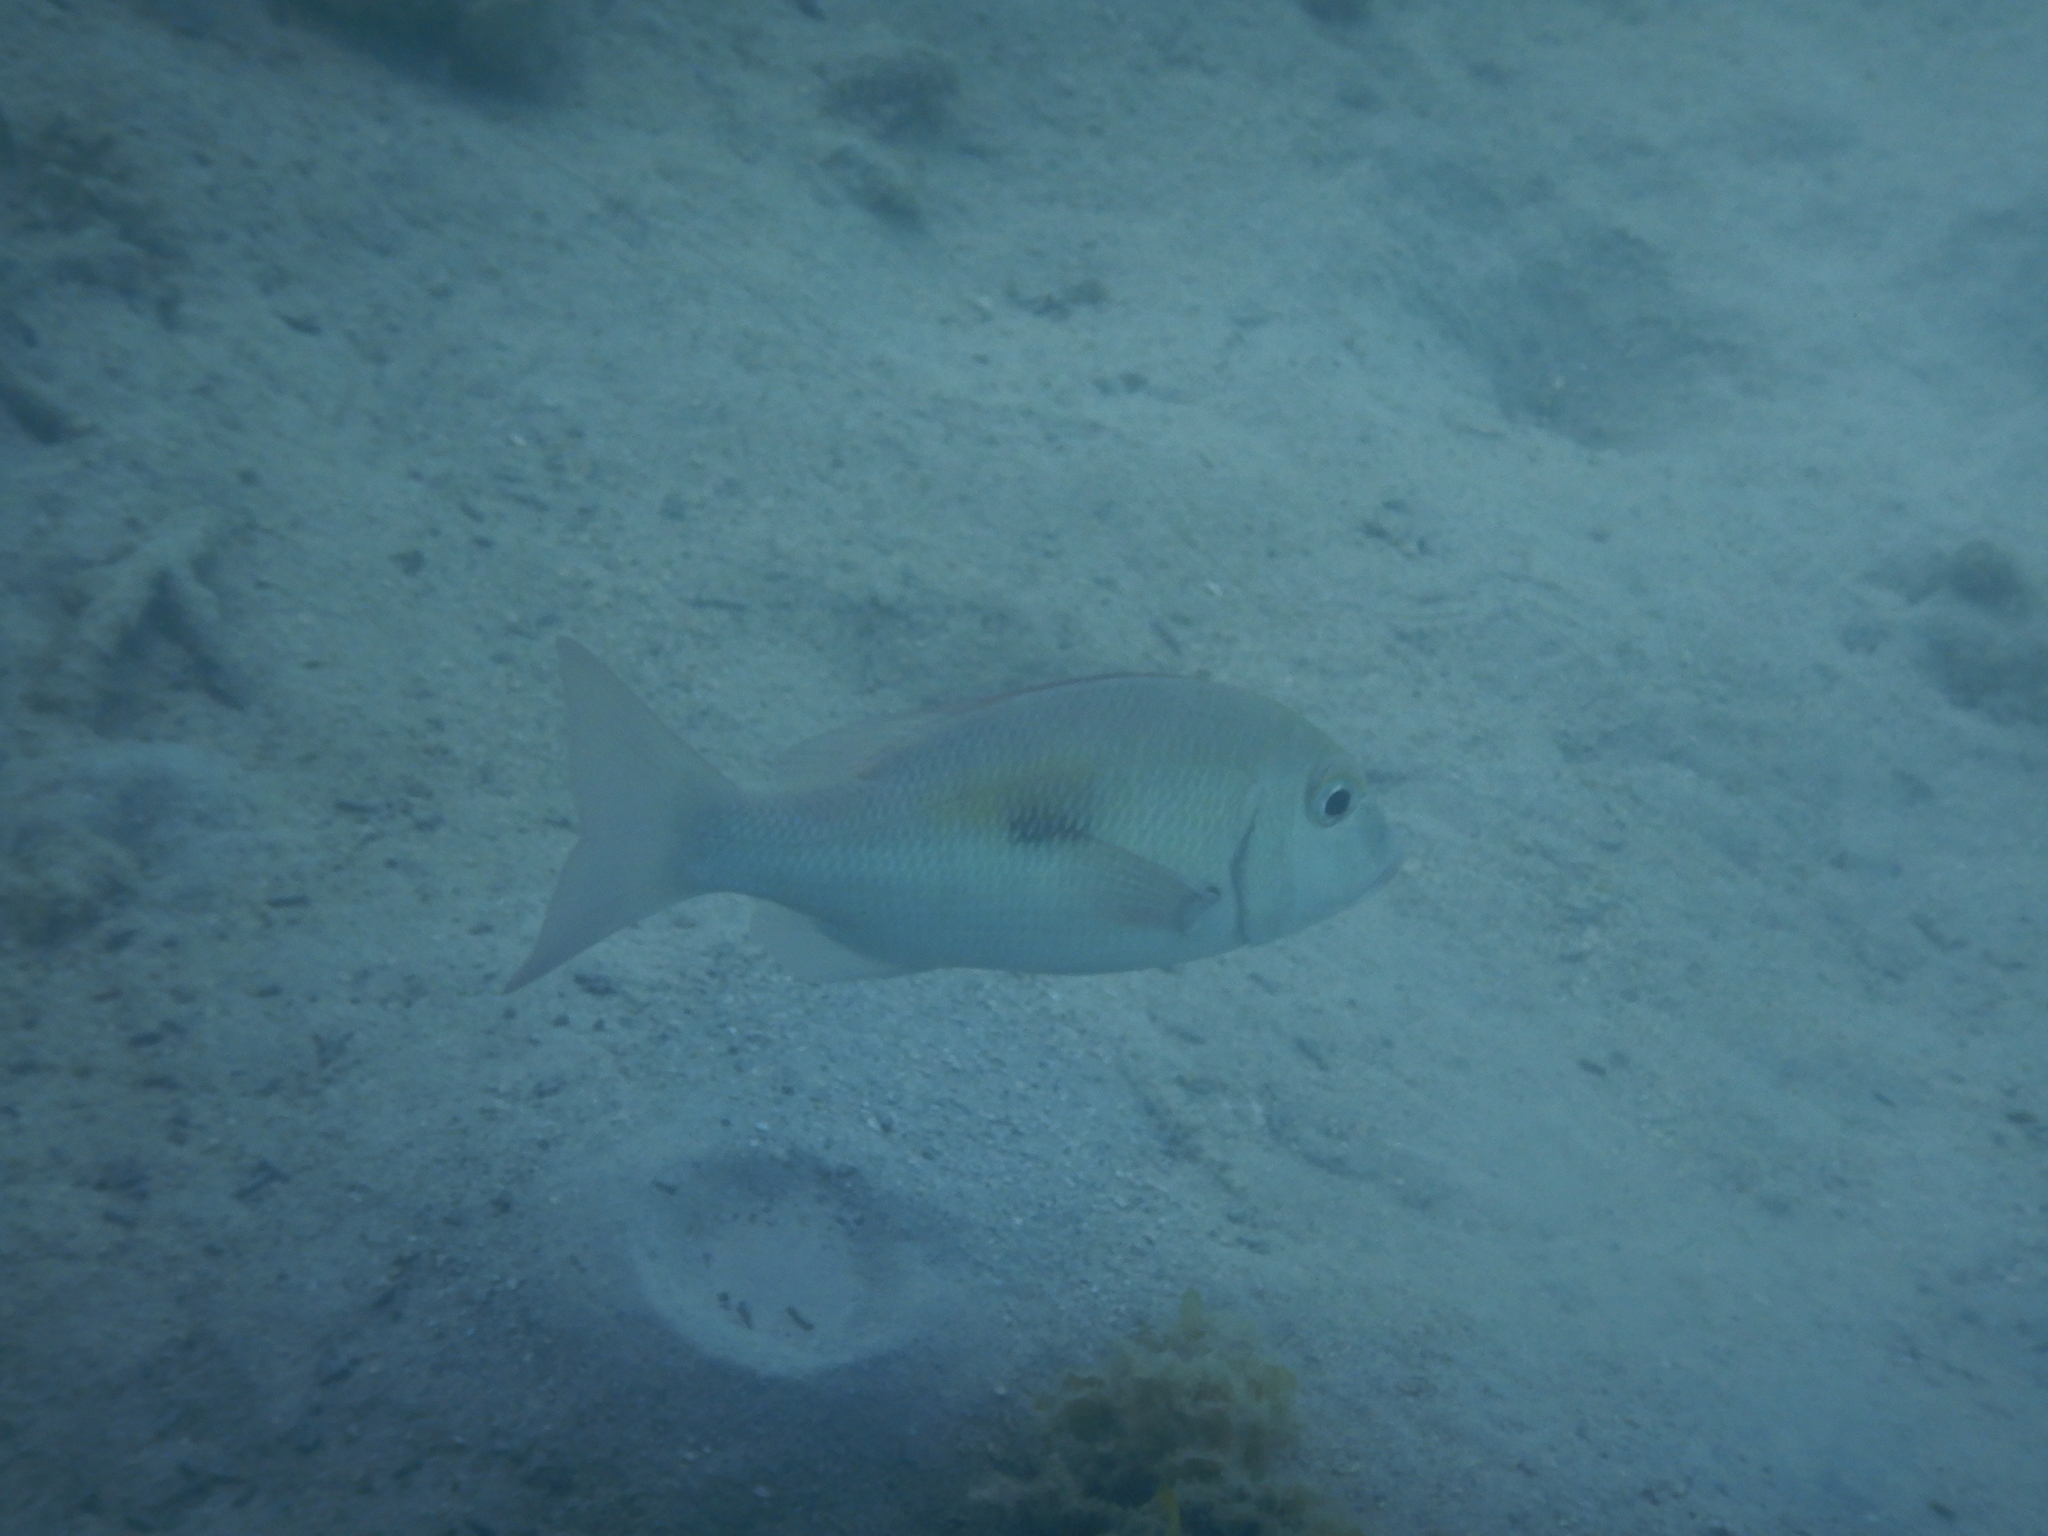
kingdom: Animalia
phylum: Chordata
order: Perciformes
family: Lethrinidae
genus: Lethrinus
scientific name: Lethrinus harak
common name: Blackspot emperor
